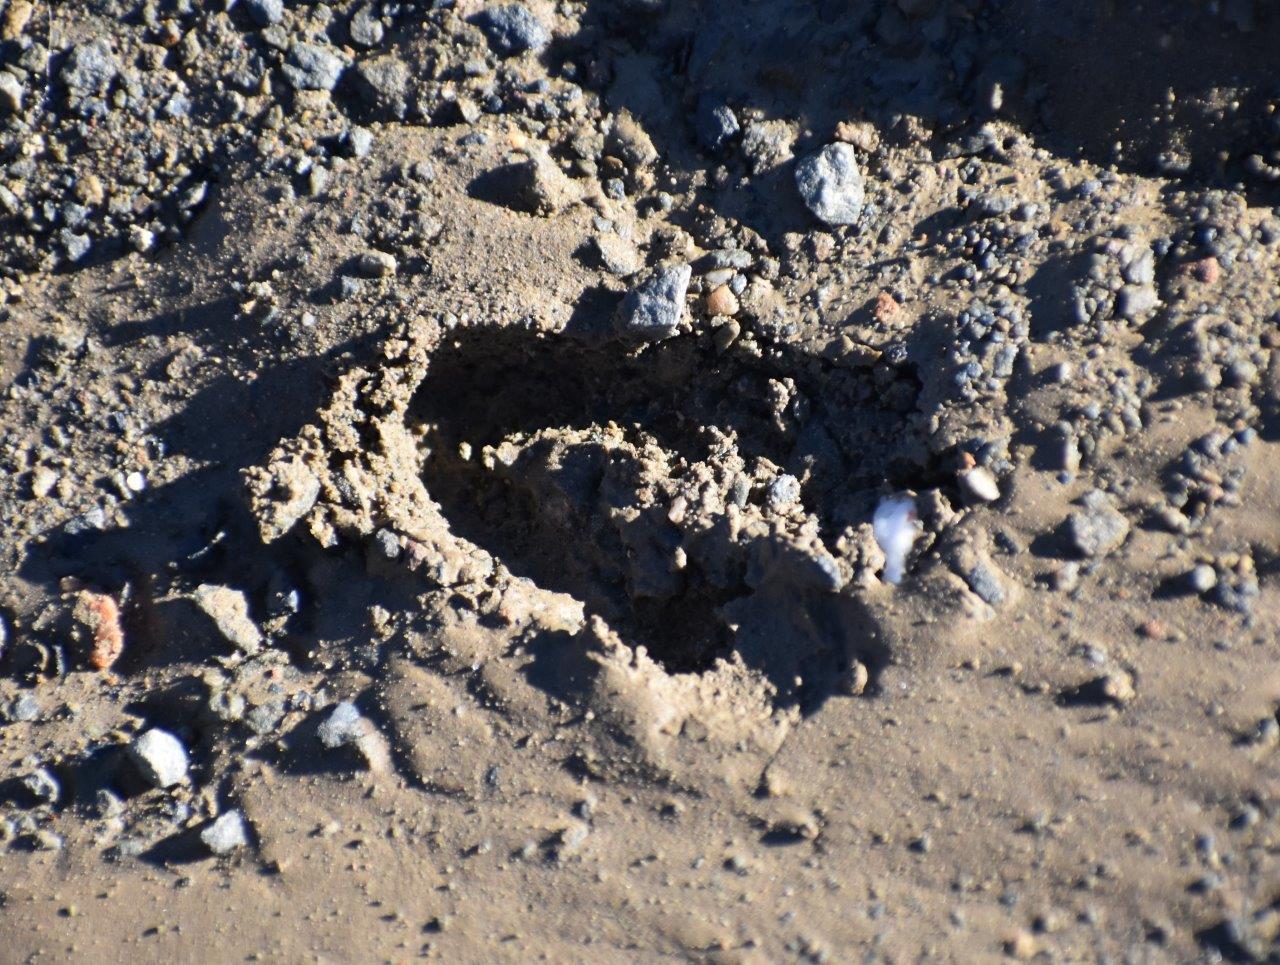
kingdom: Animalia
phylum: Chordata
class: Mammalia
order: Artiodactyla
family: Bovidae
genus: Pelea
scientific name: Pelea capreolus
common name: Common rhebok
